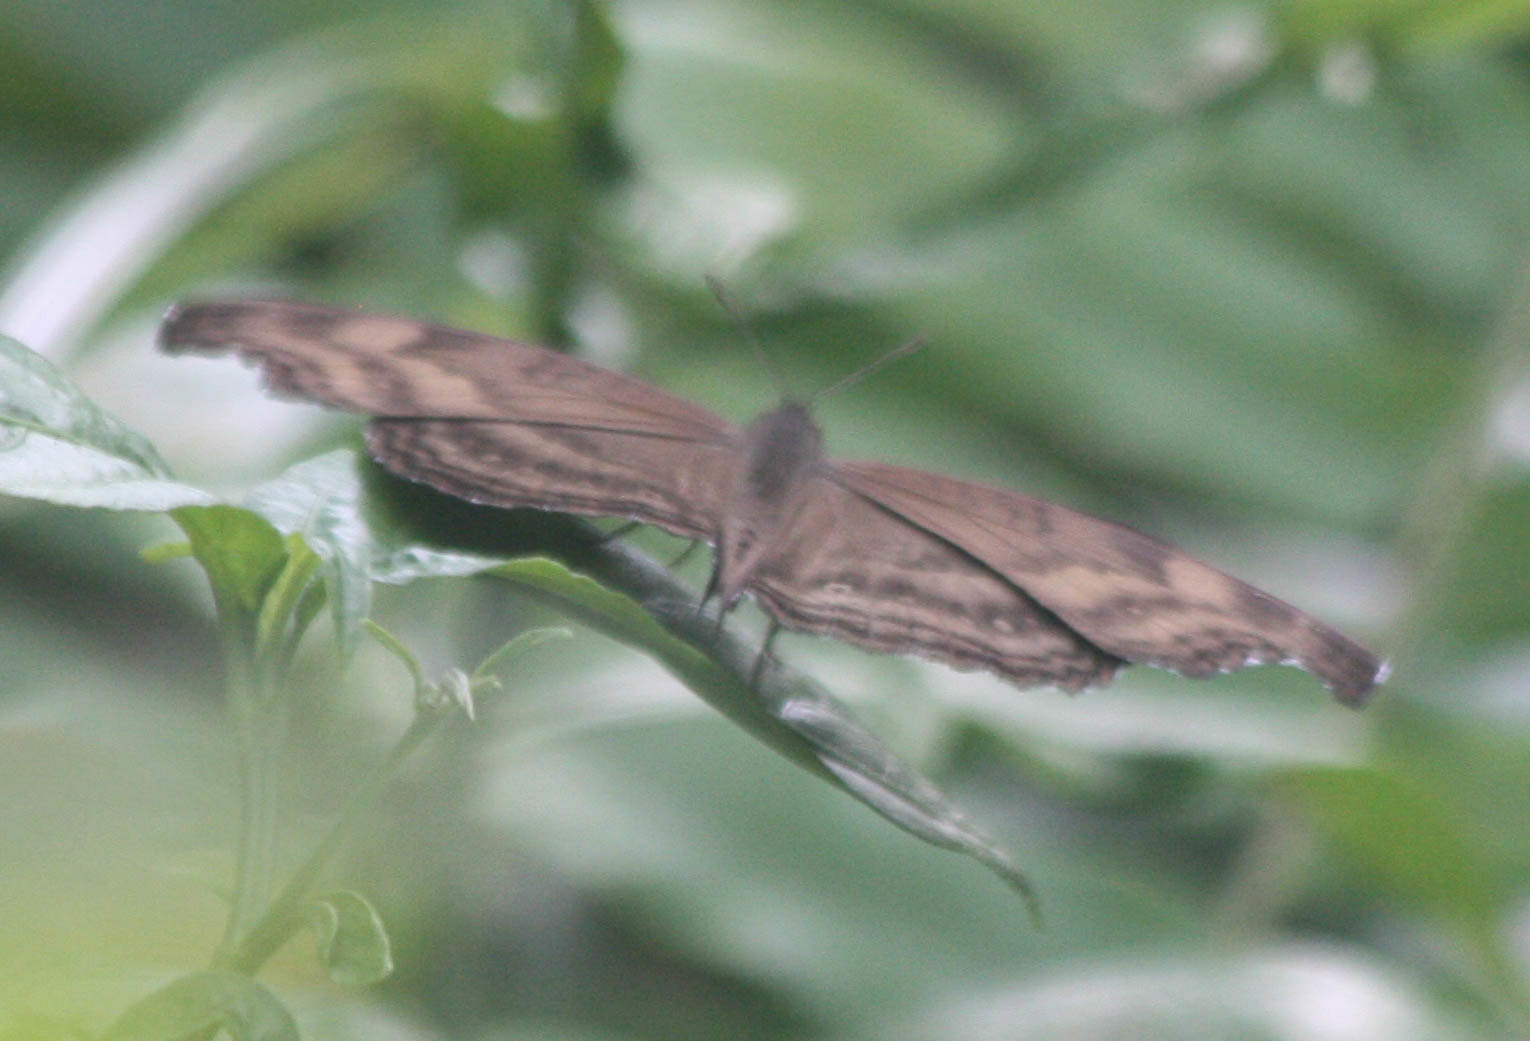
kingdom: Animalia
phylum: Arthropoda
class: Insecta
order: Lepidoptera
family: Nymphalidae
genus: Junonia
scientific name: Junonia iphita
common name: Chocolate pansy
